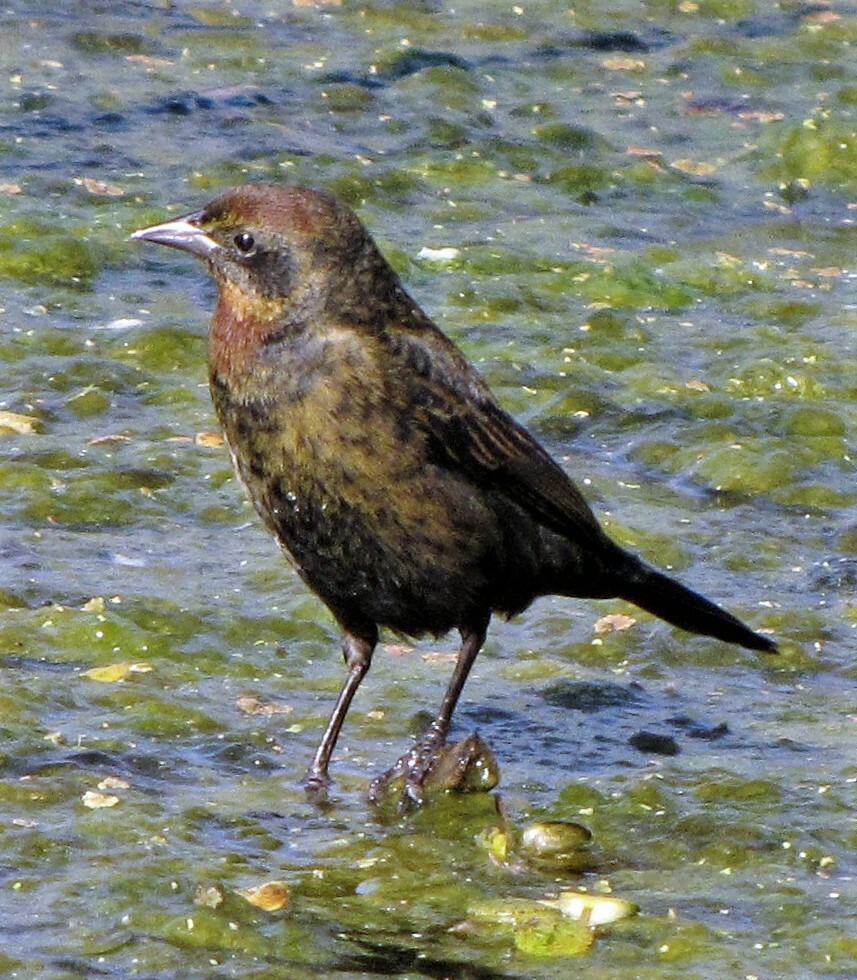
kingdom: Animalia
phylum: Chordata
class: Aves
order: Passeriformes
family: Icteridae
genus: Chrysomus
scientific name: Chrysomus ruficapillus
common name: Chestnut-capped blackbird
